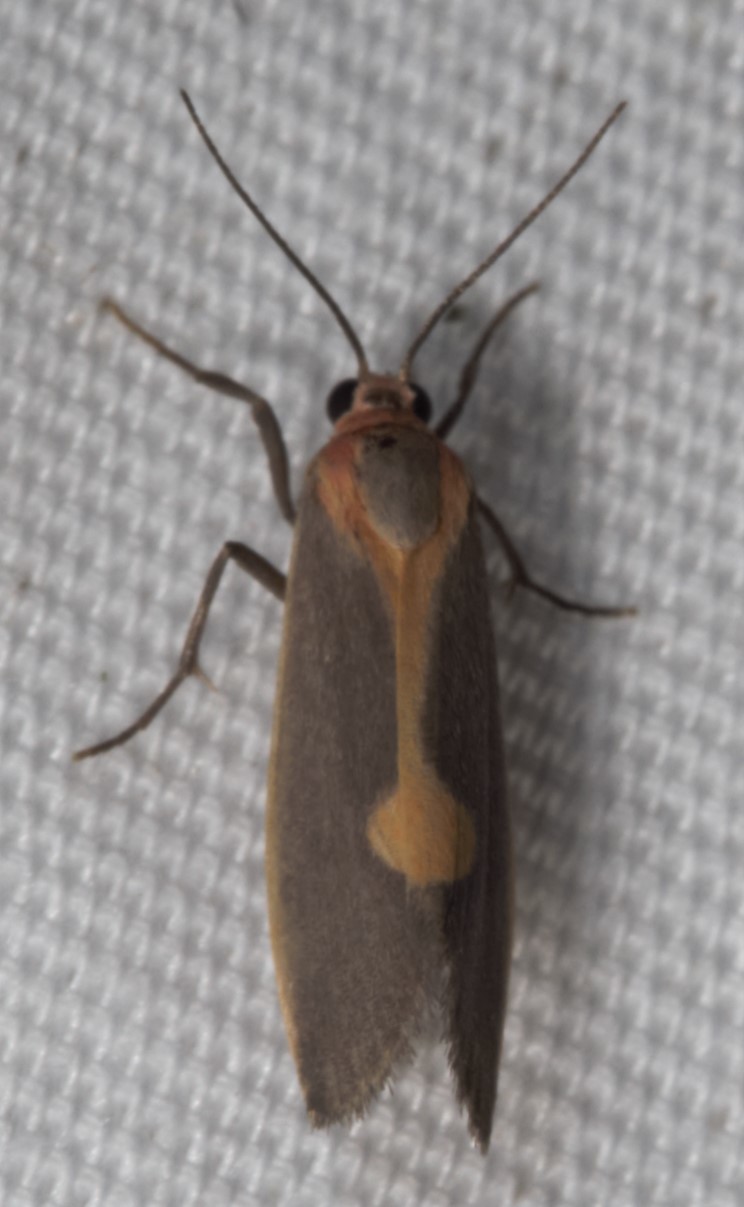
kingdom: Animalia
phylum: Arthropoda
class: Insecta
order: Lepidoptera
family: Erebidae
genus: Cisthene
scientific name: Cisthene plumbea
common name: Lead colored lichen moth
